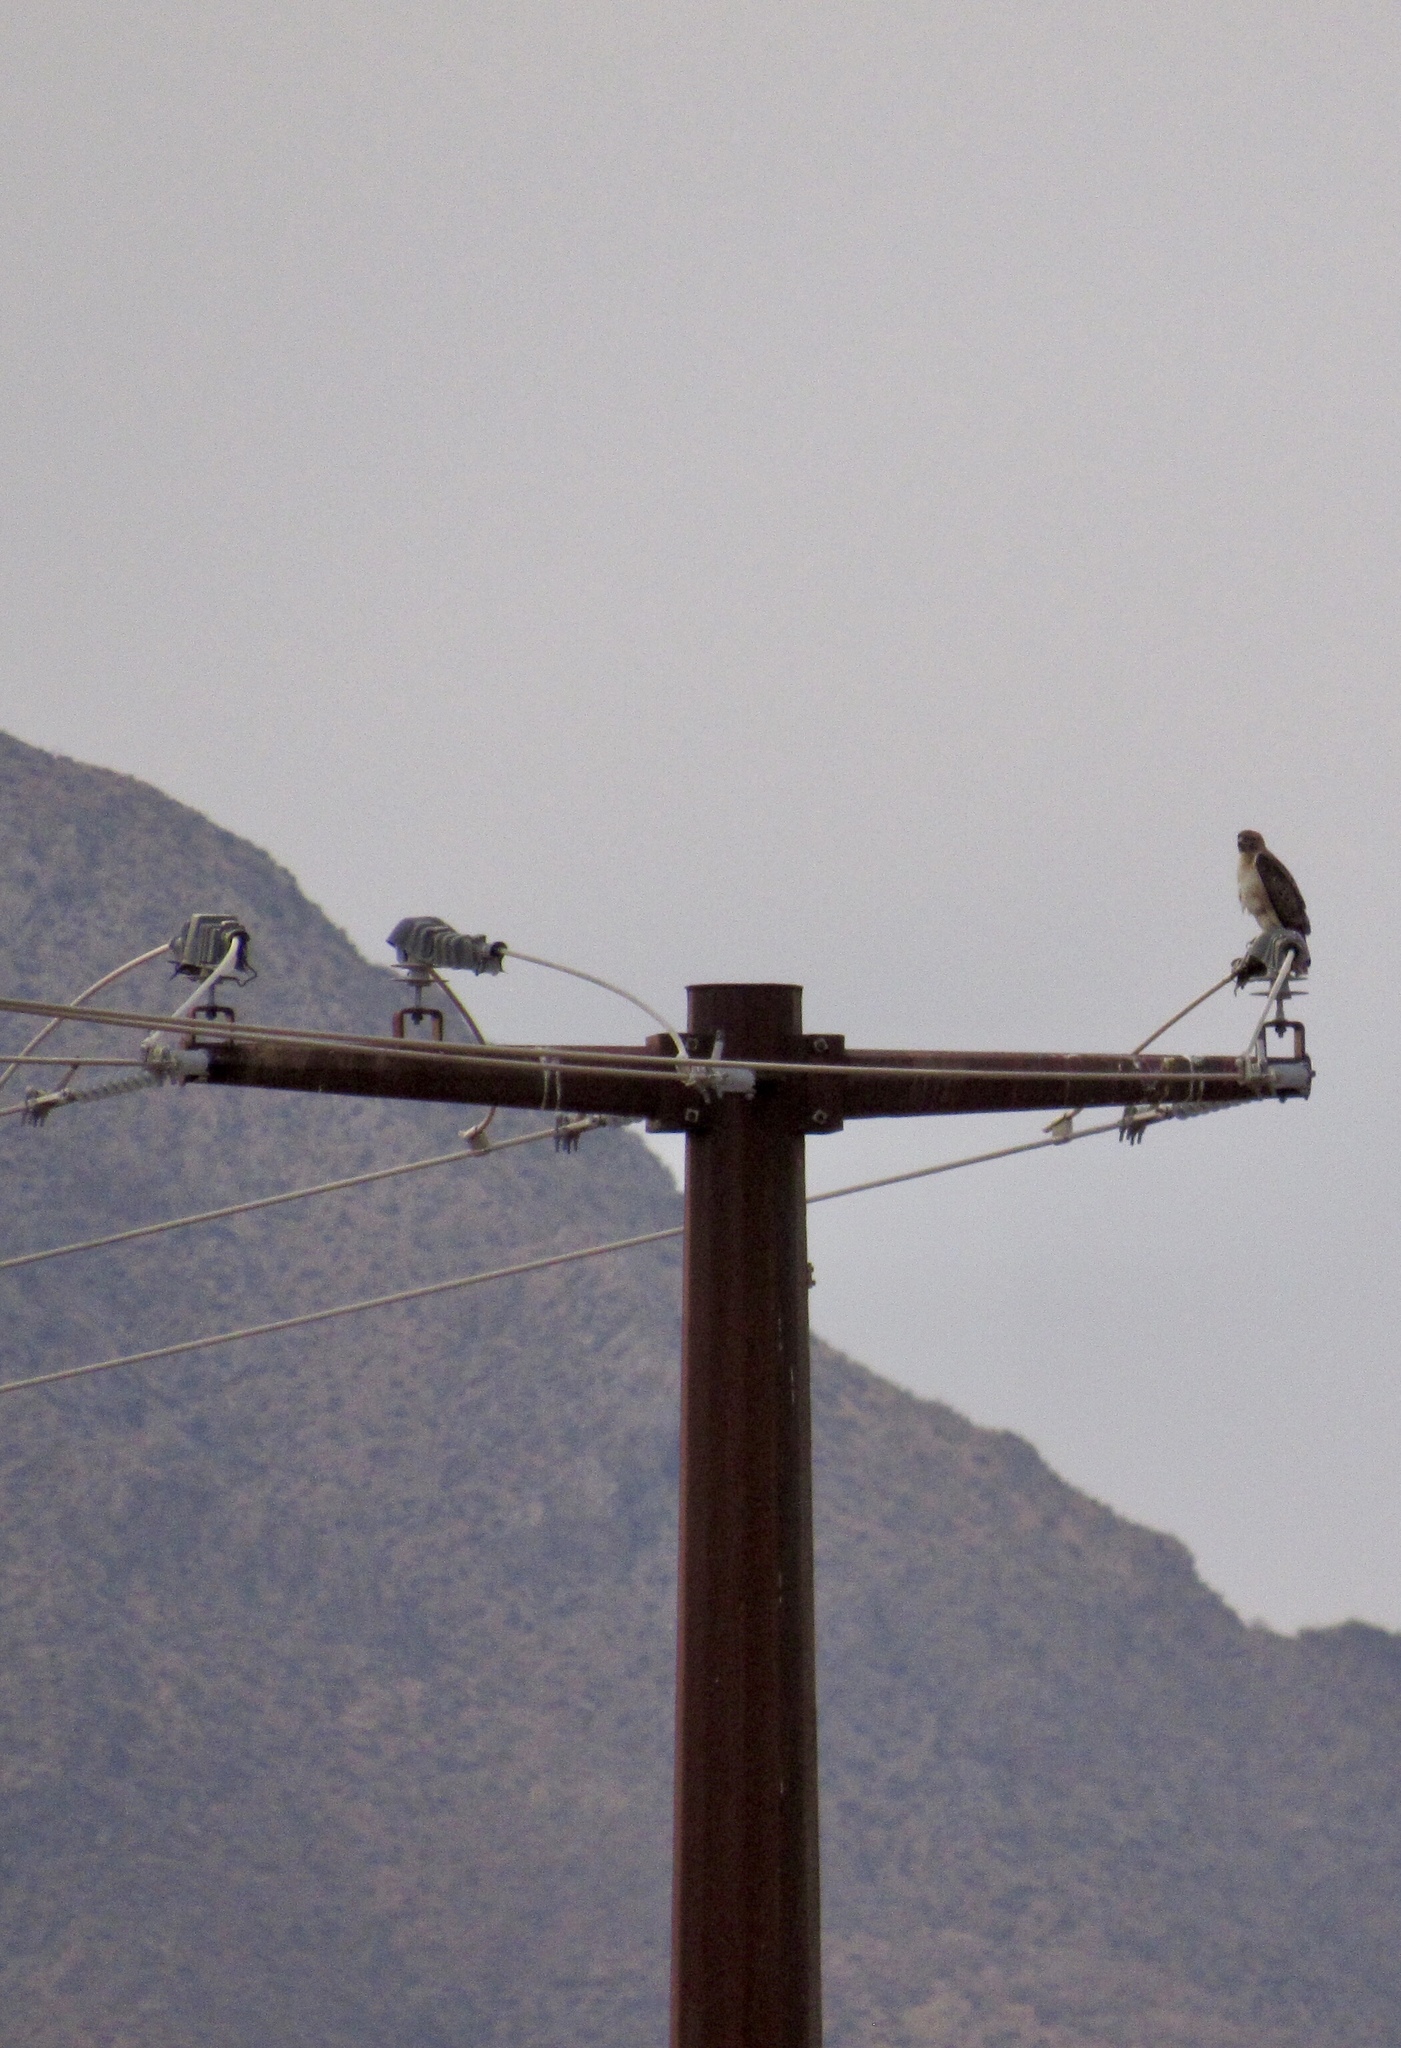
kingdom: Animalia
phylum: Chordata
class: Aves
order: Accipitriformes
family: Accipitridae
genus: Buteo
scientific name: Buteo jamaicensis
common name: Red-tailed hawk
